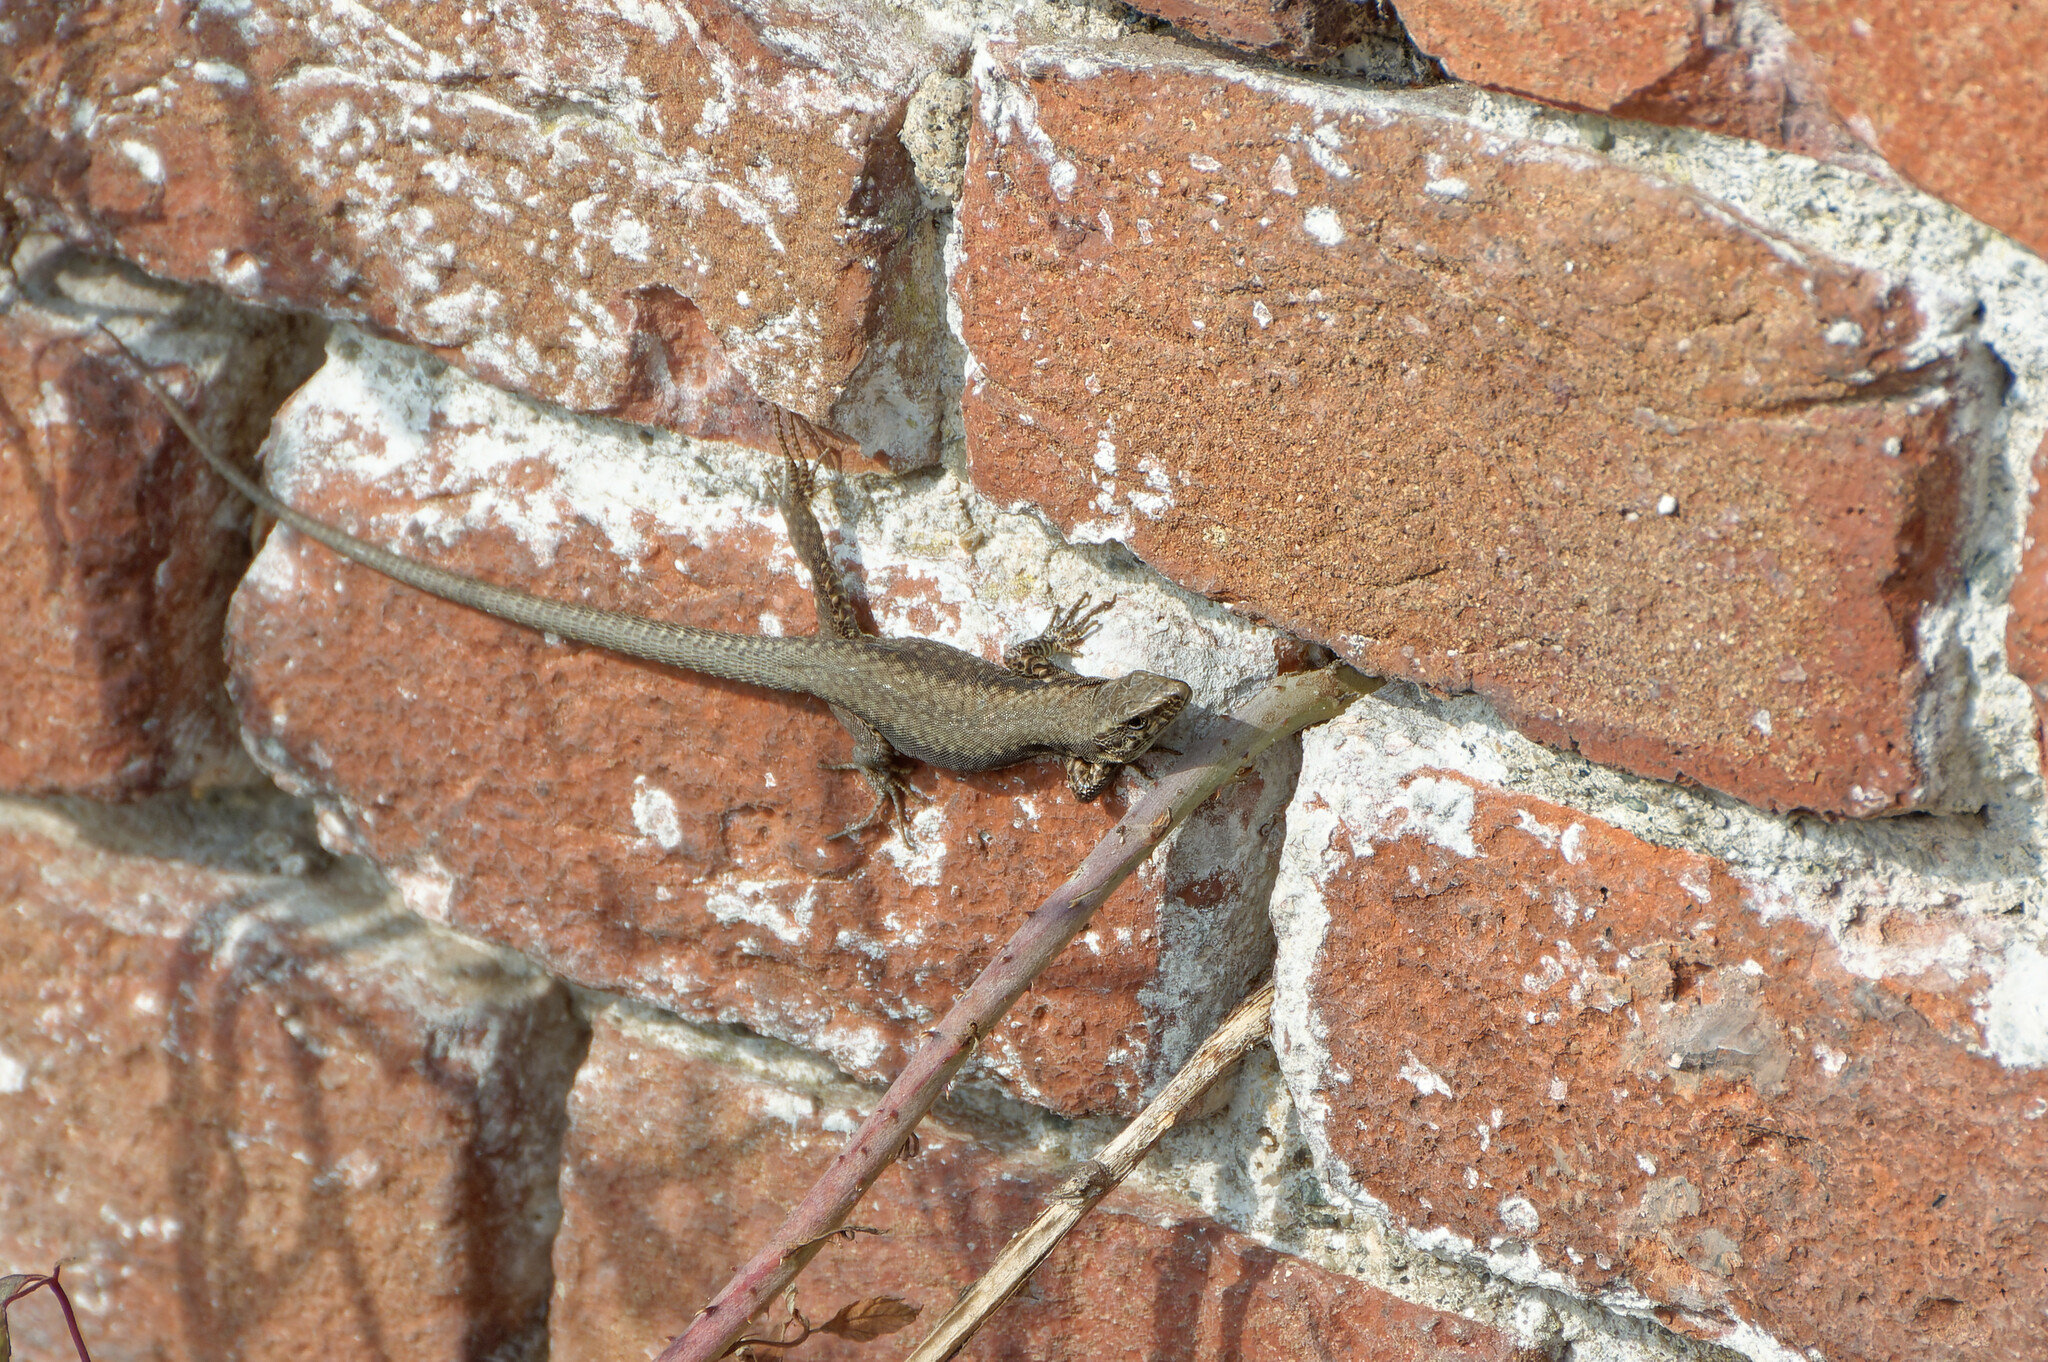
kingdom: Animalia
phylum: Chordata
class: Squamata
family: Lacertidae
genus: Podarcis
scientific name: Podarcis muralis
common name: Common wall lizard
